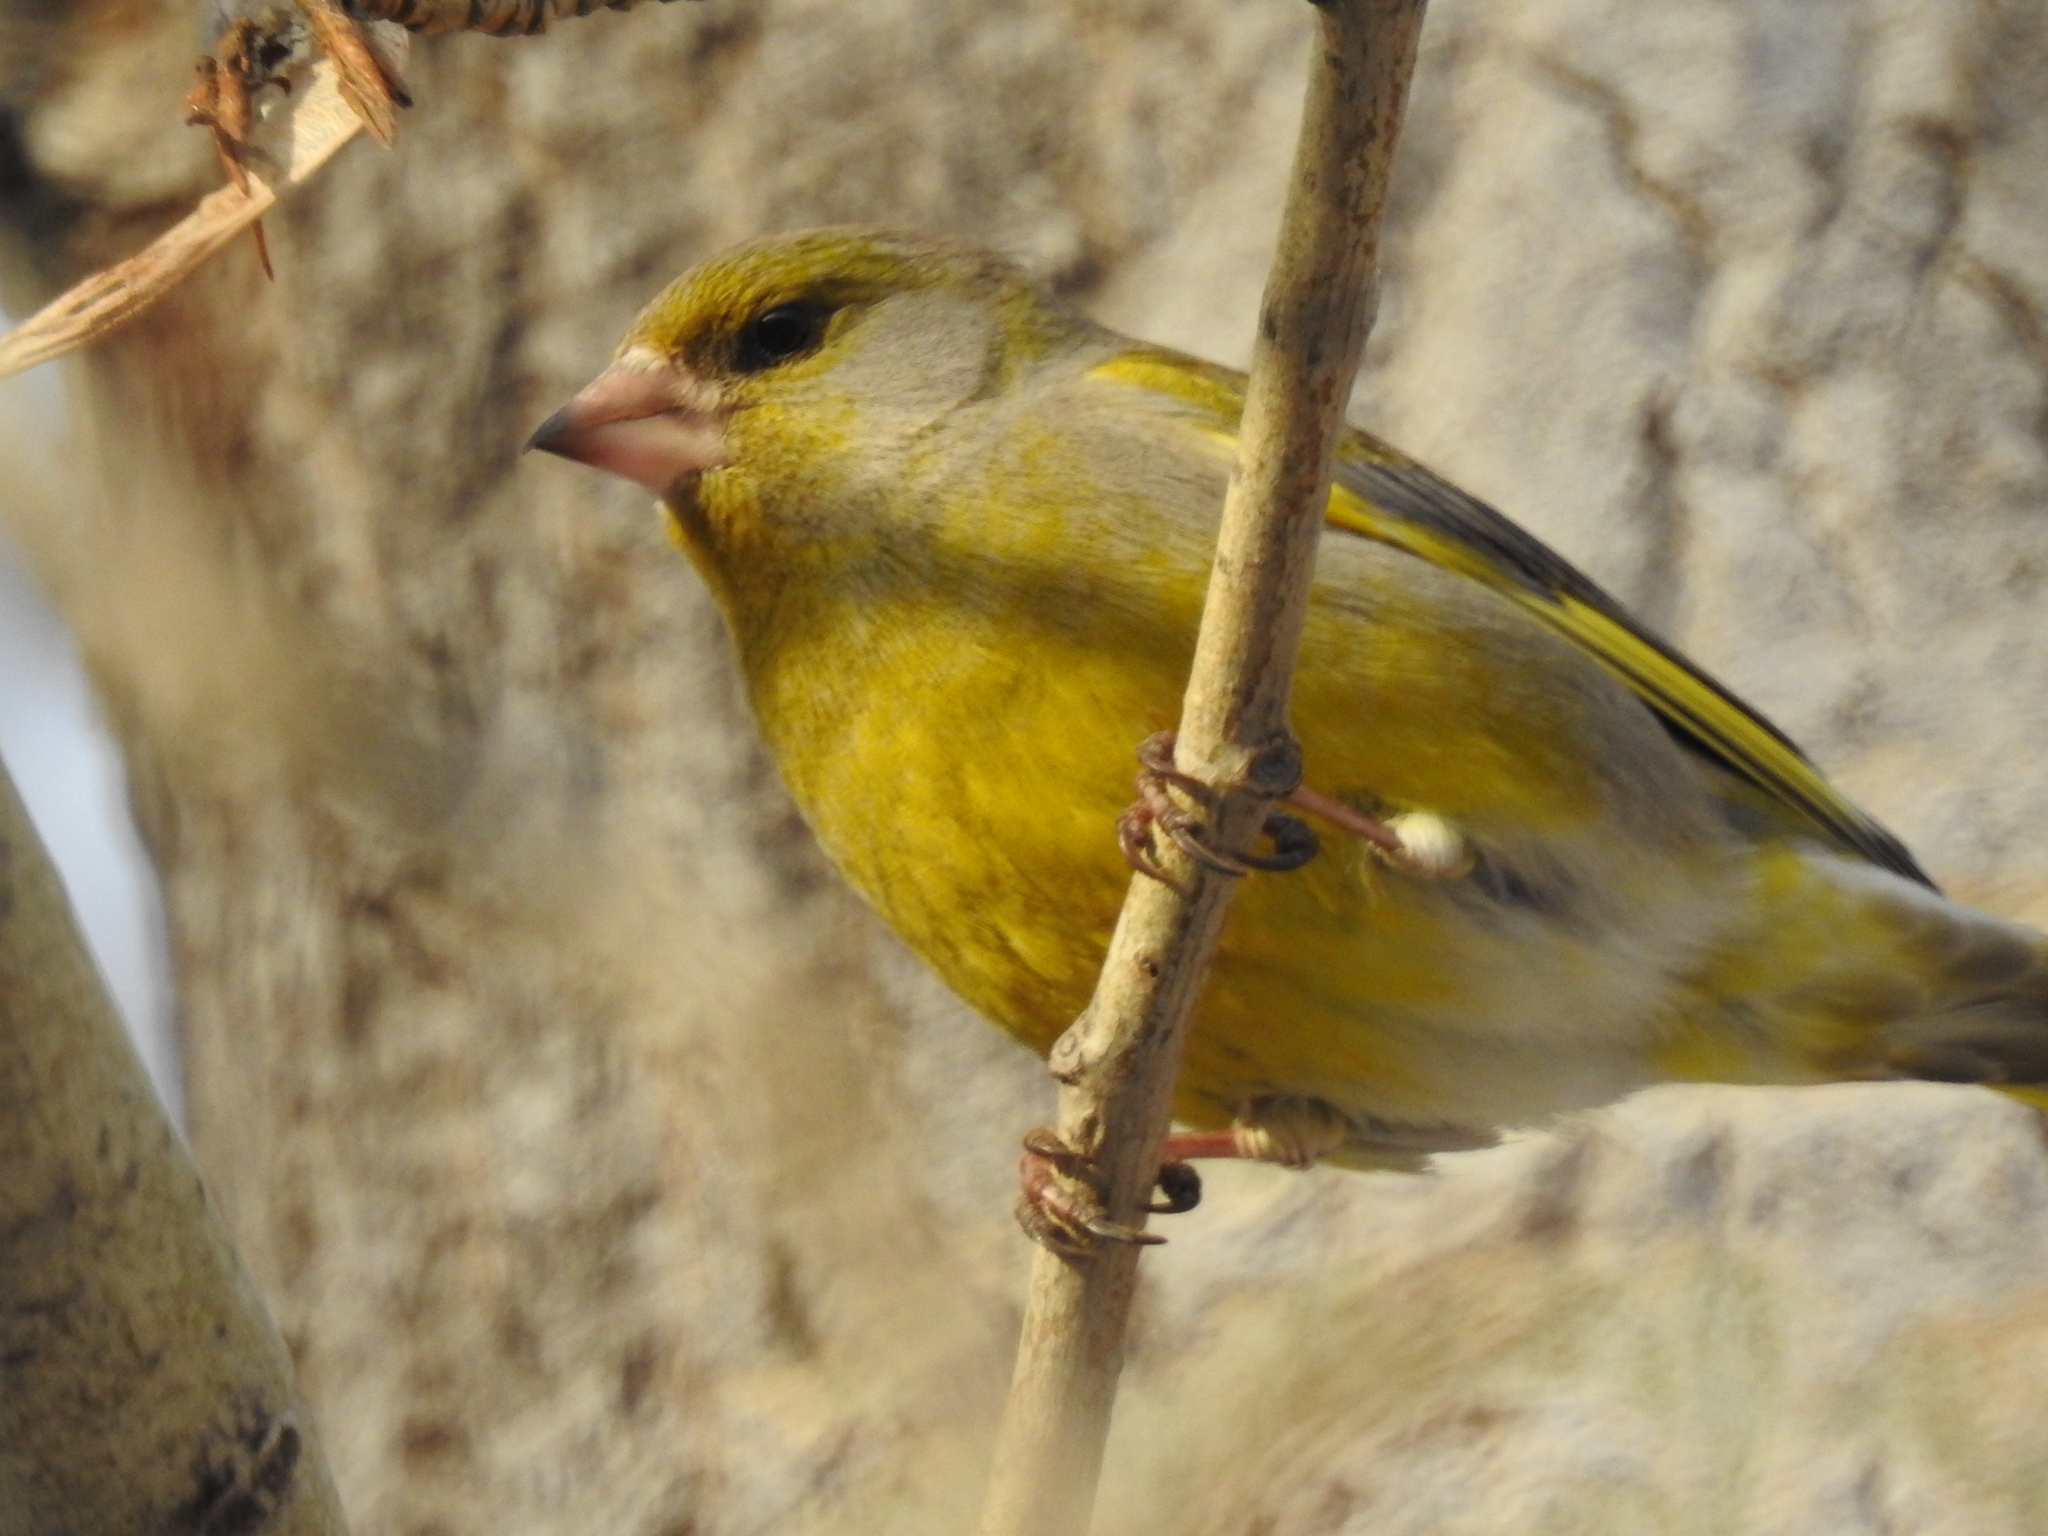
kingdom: Plantae
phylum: Tracheophyta
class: Liliopsida
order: Poales
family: Poaceae
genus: Chloris
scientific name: Chloris chloris
